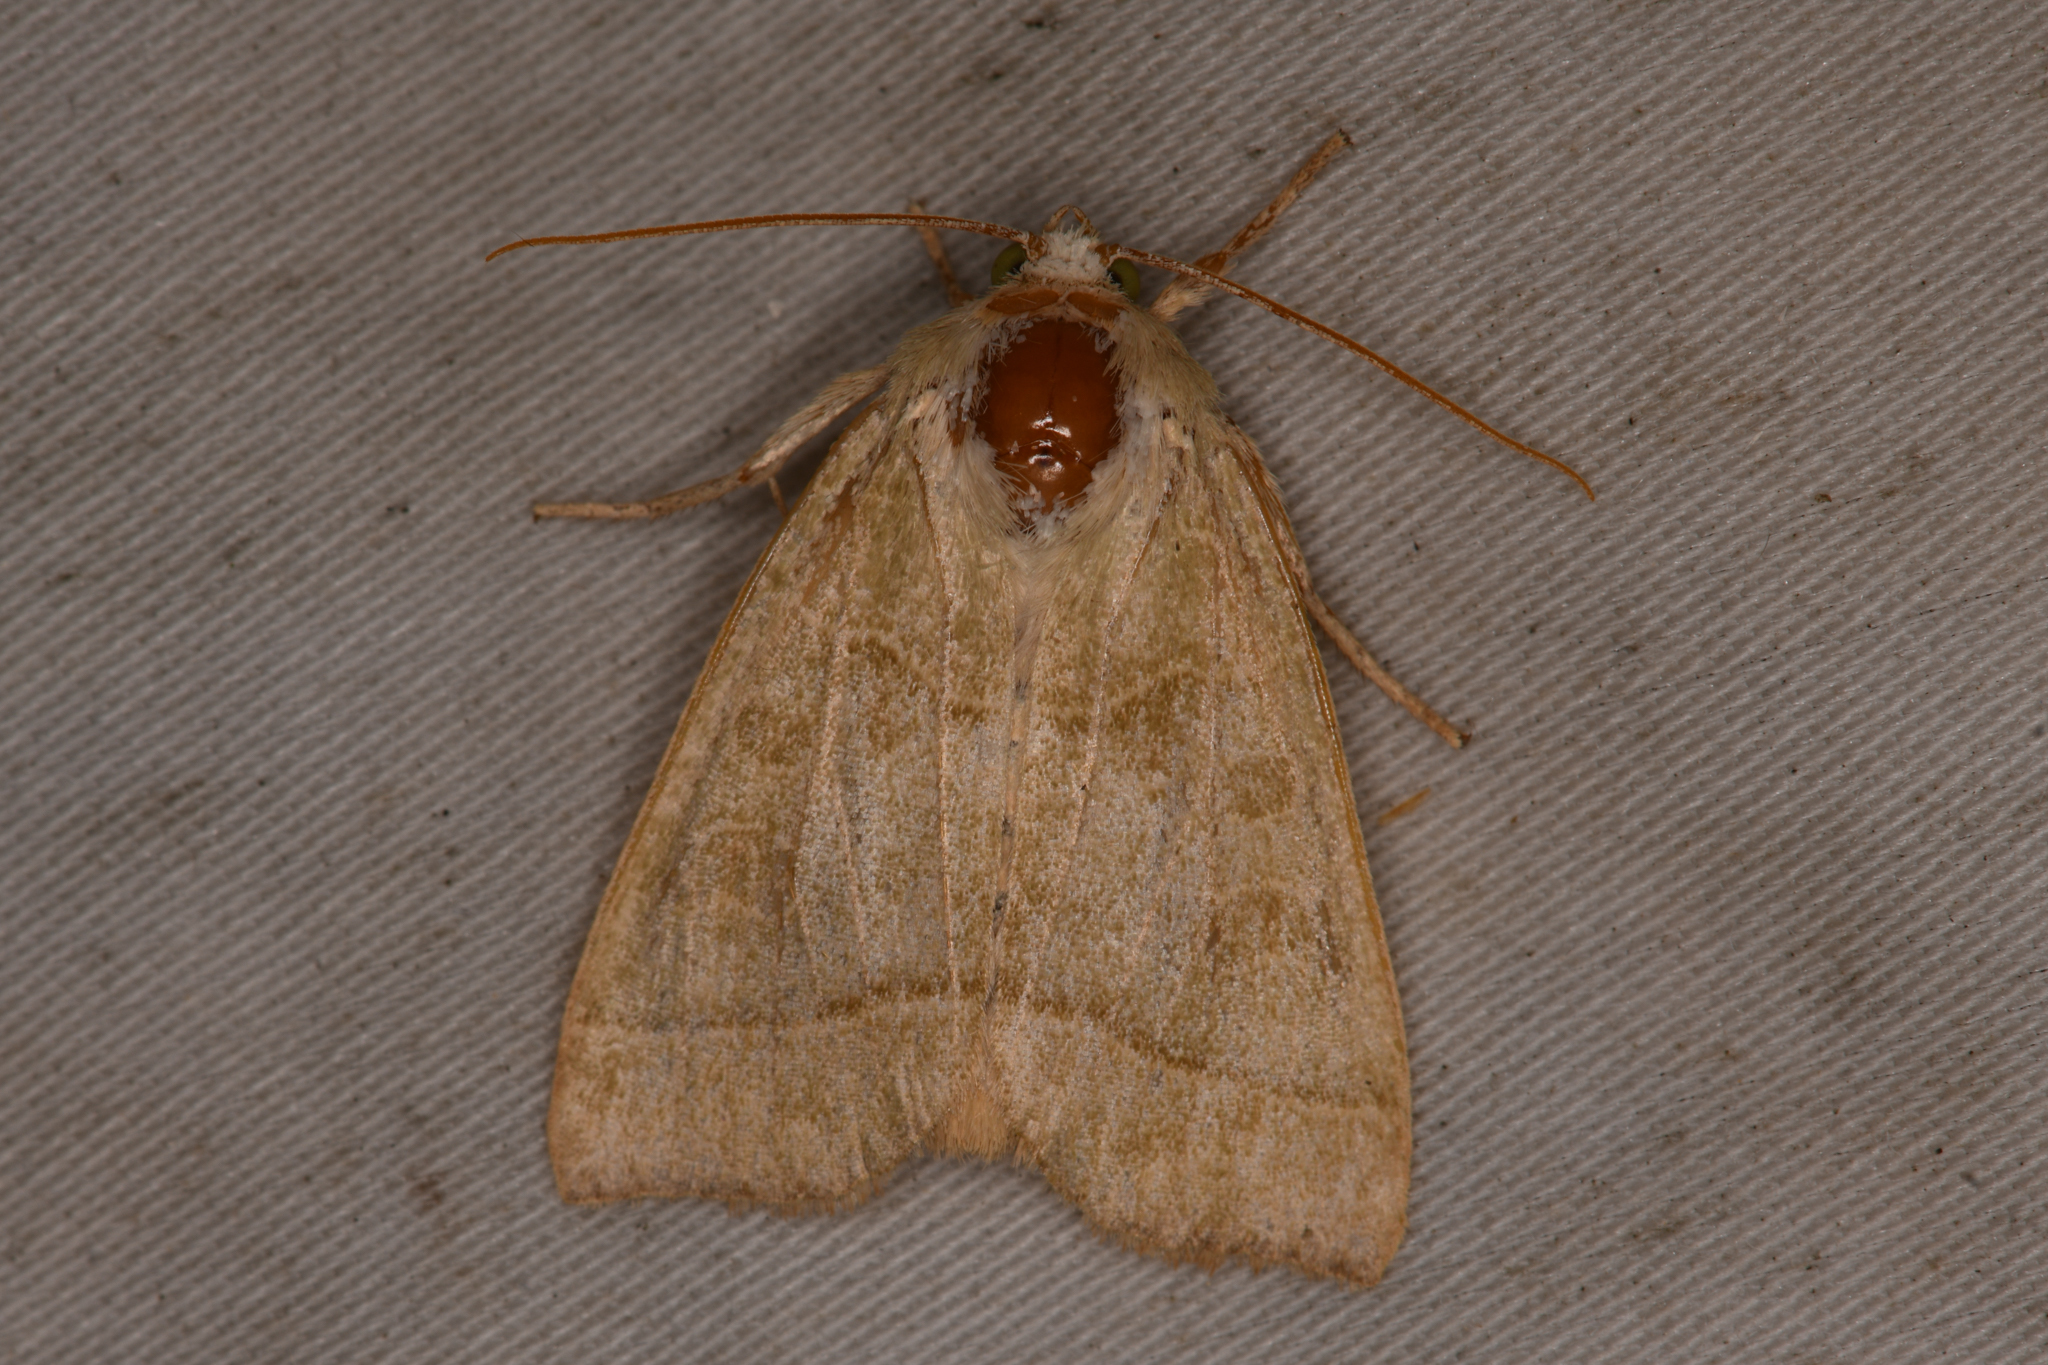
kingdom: Animalia
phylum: Arthropoda
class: Insecta
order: Lepidoptera
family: Noctuidae
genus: Ipimorpha
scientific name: Ipimorpha pleonectusa
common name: Even-lined sallow
